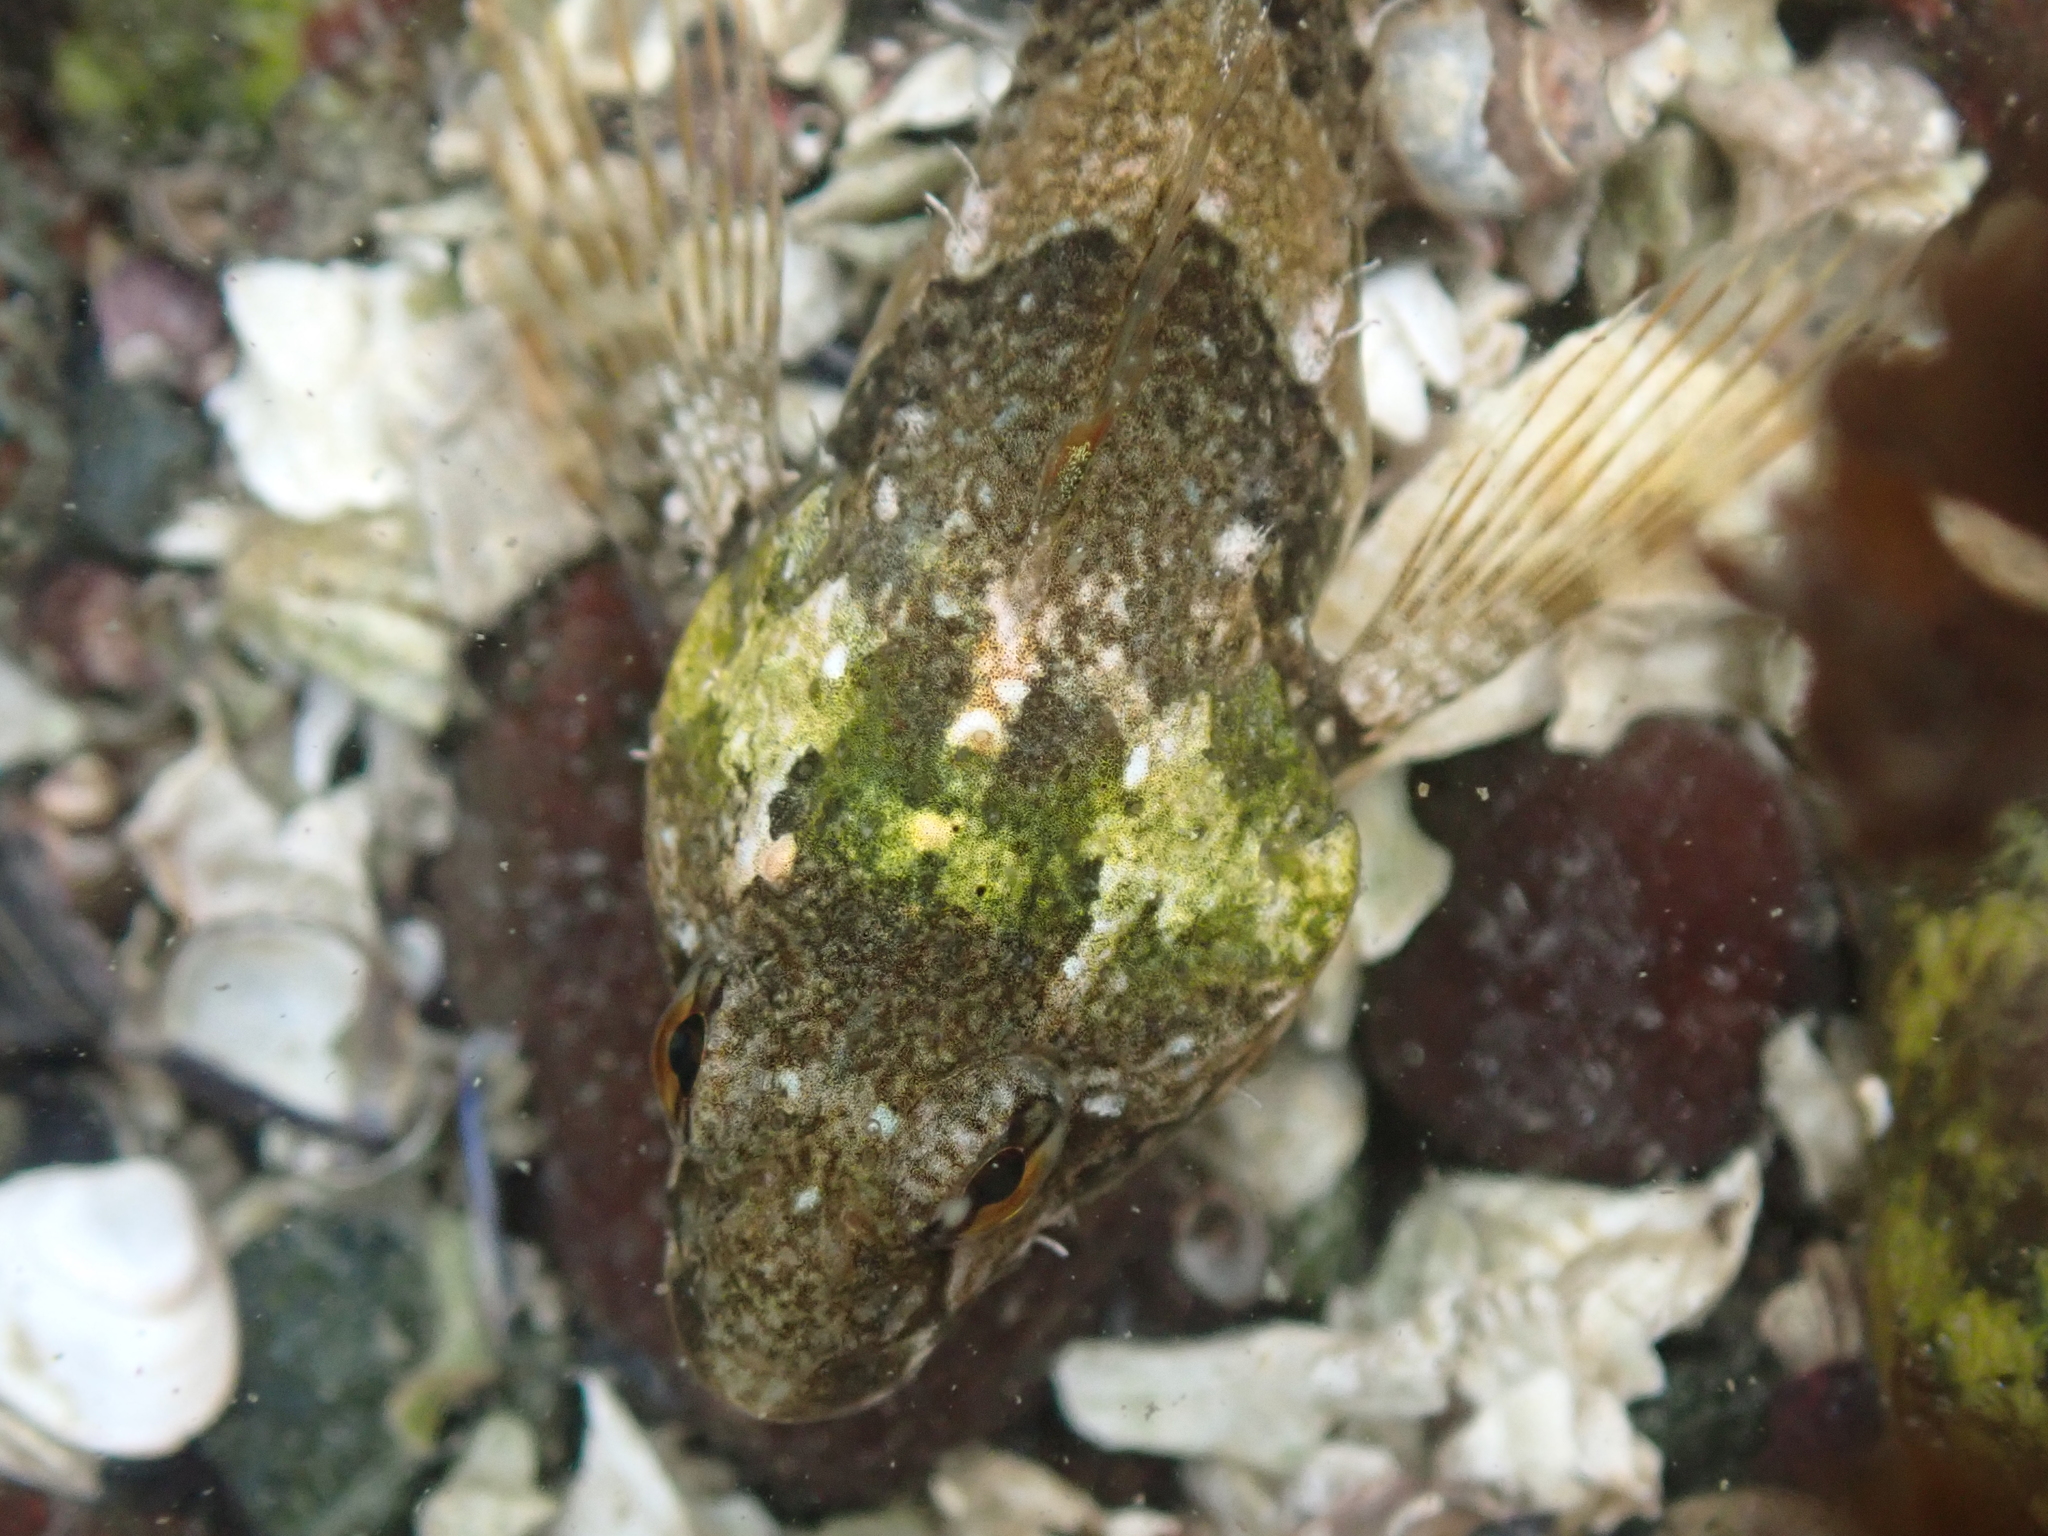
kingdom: Animalia
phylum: Chordata
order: Scorpaeniformes
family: Cottidae
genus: Oligocottus
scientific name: Oligocottus maculosus
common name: Tidepool sculpin
